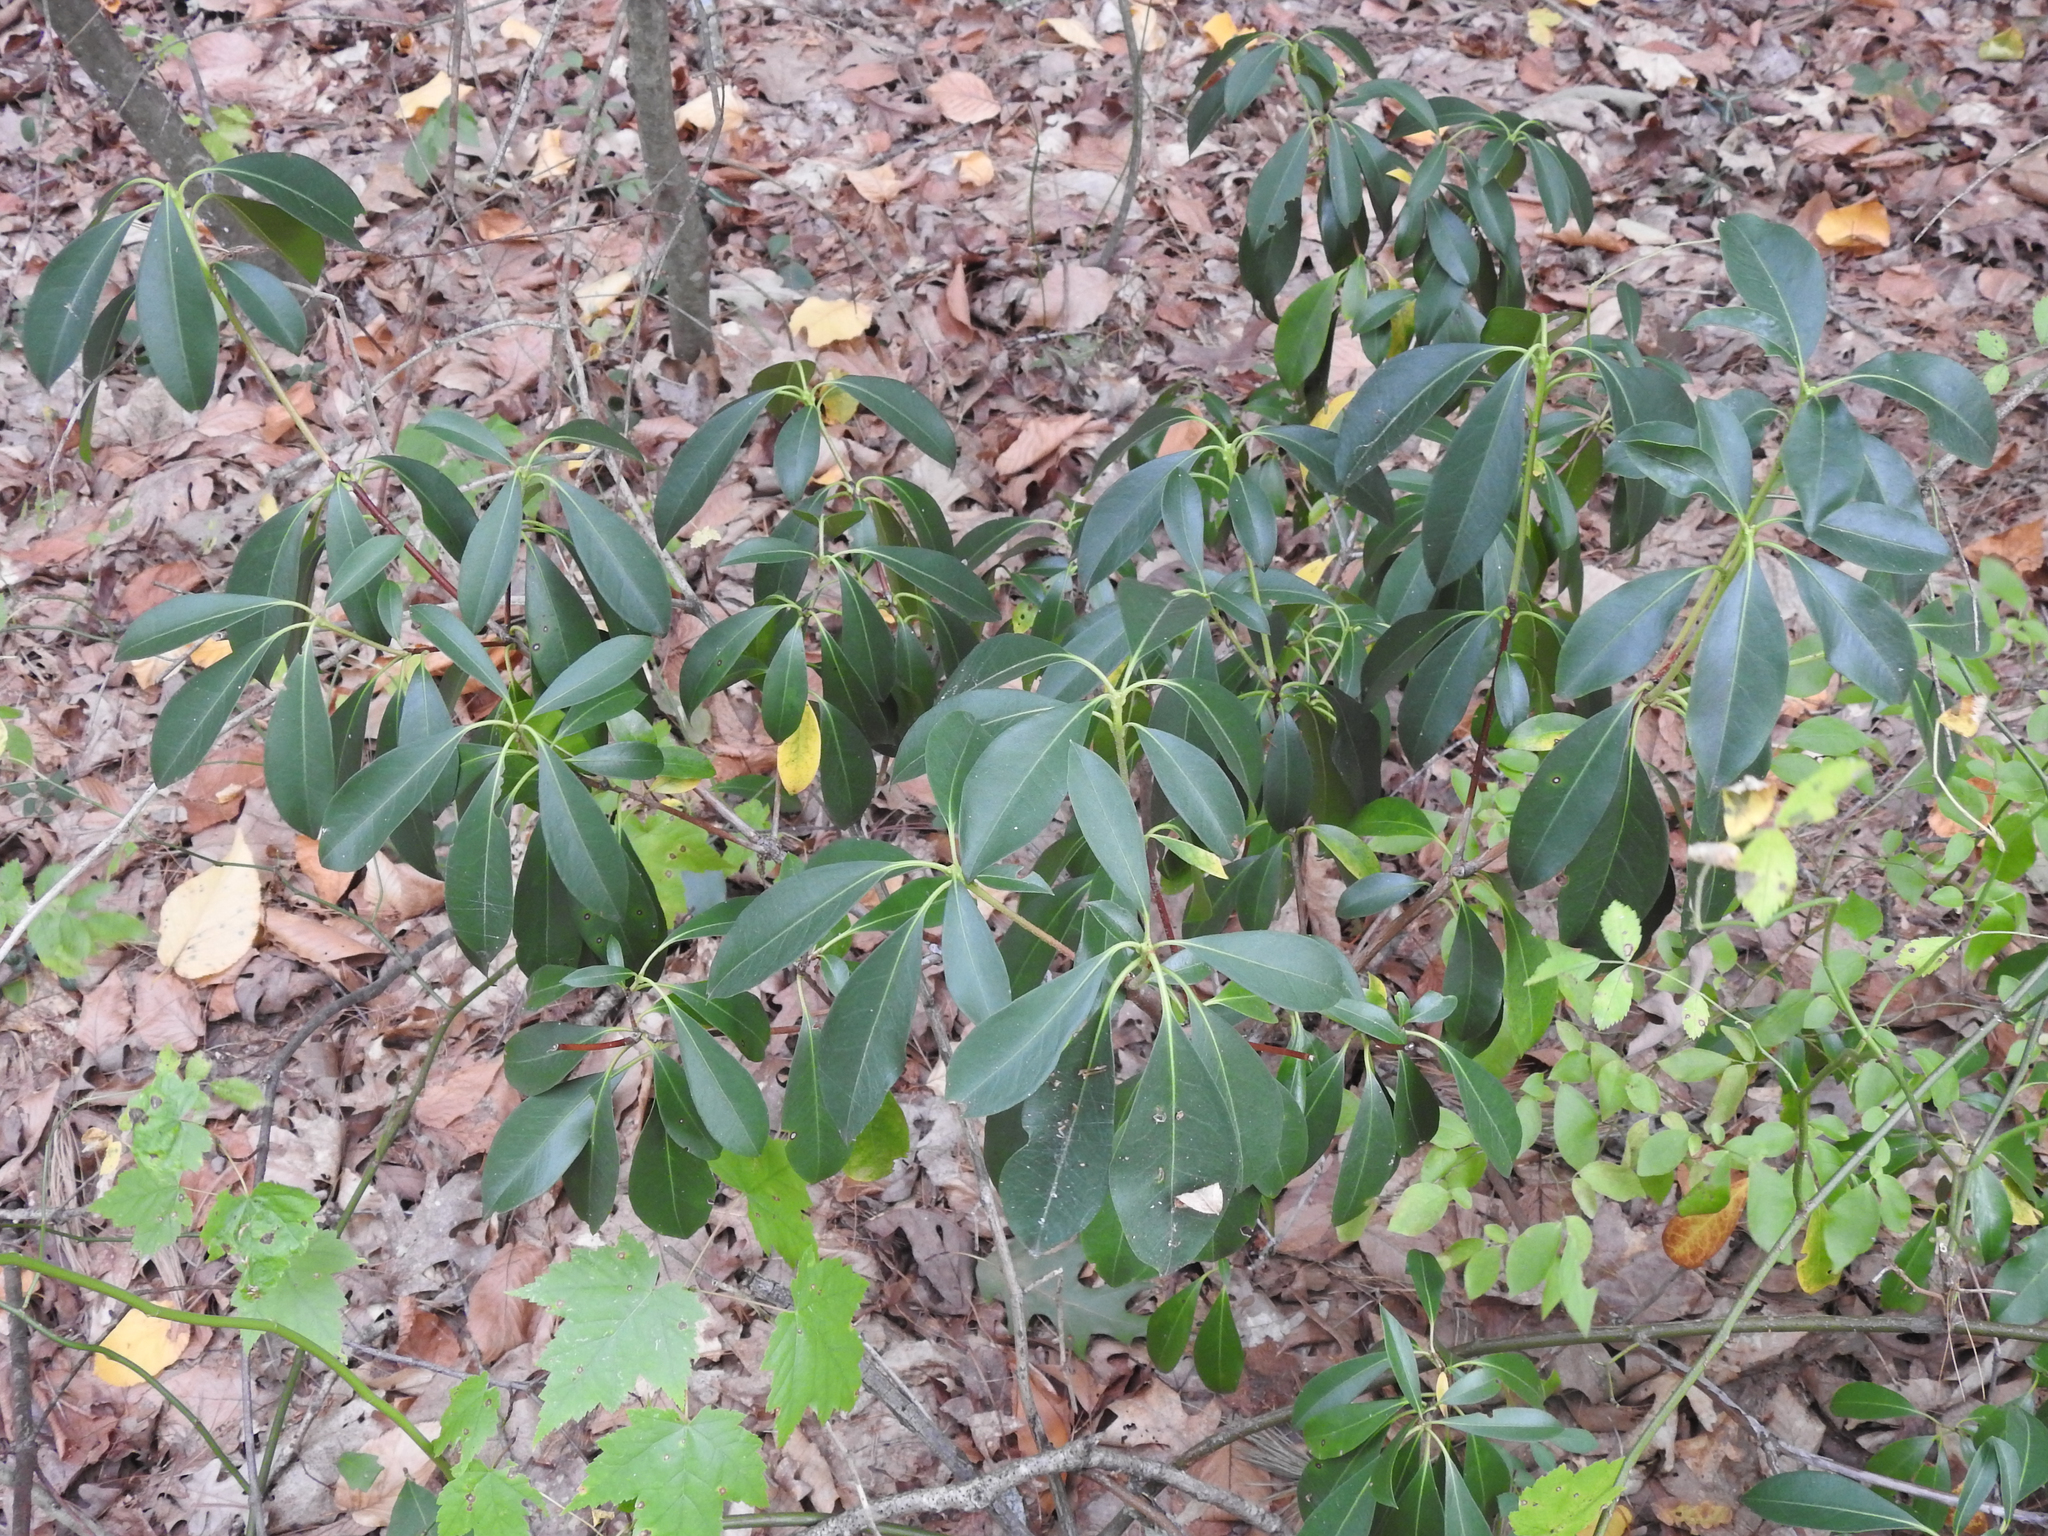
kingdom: Plantae
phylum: Tracheophyta
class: Magnoliopsida
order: Ericales
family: Ericaceae
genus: Kalmia
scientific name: Kalmia latifolia
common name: Mountain-laurel
